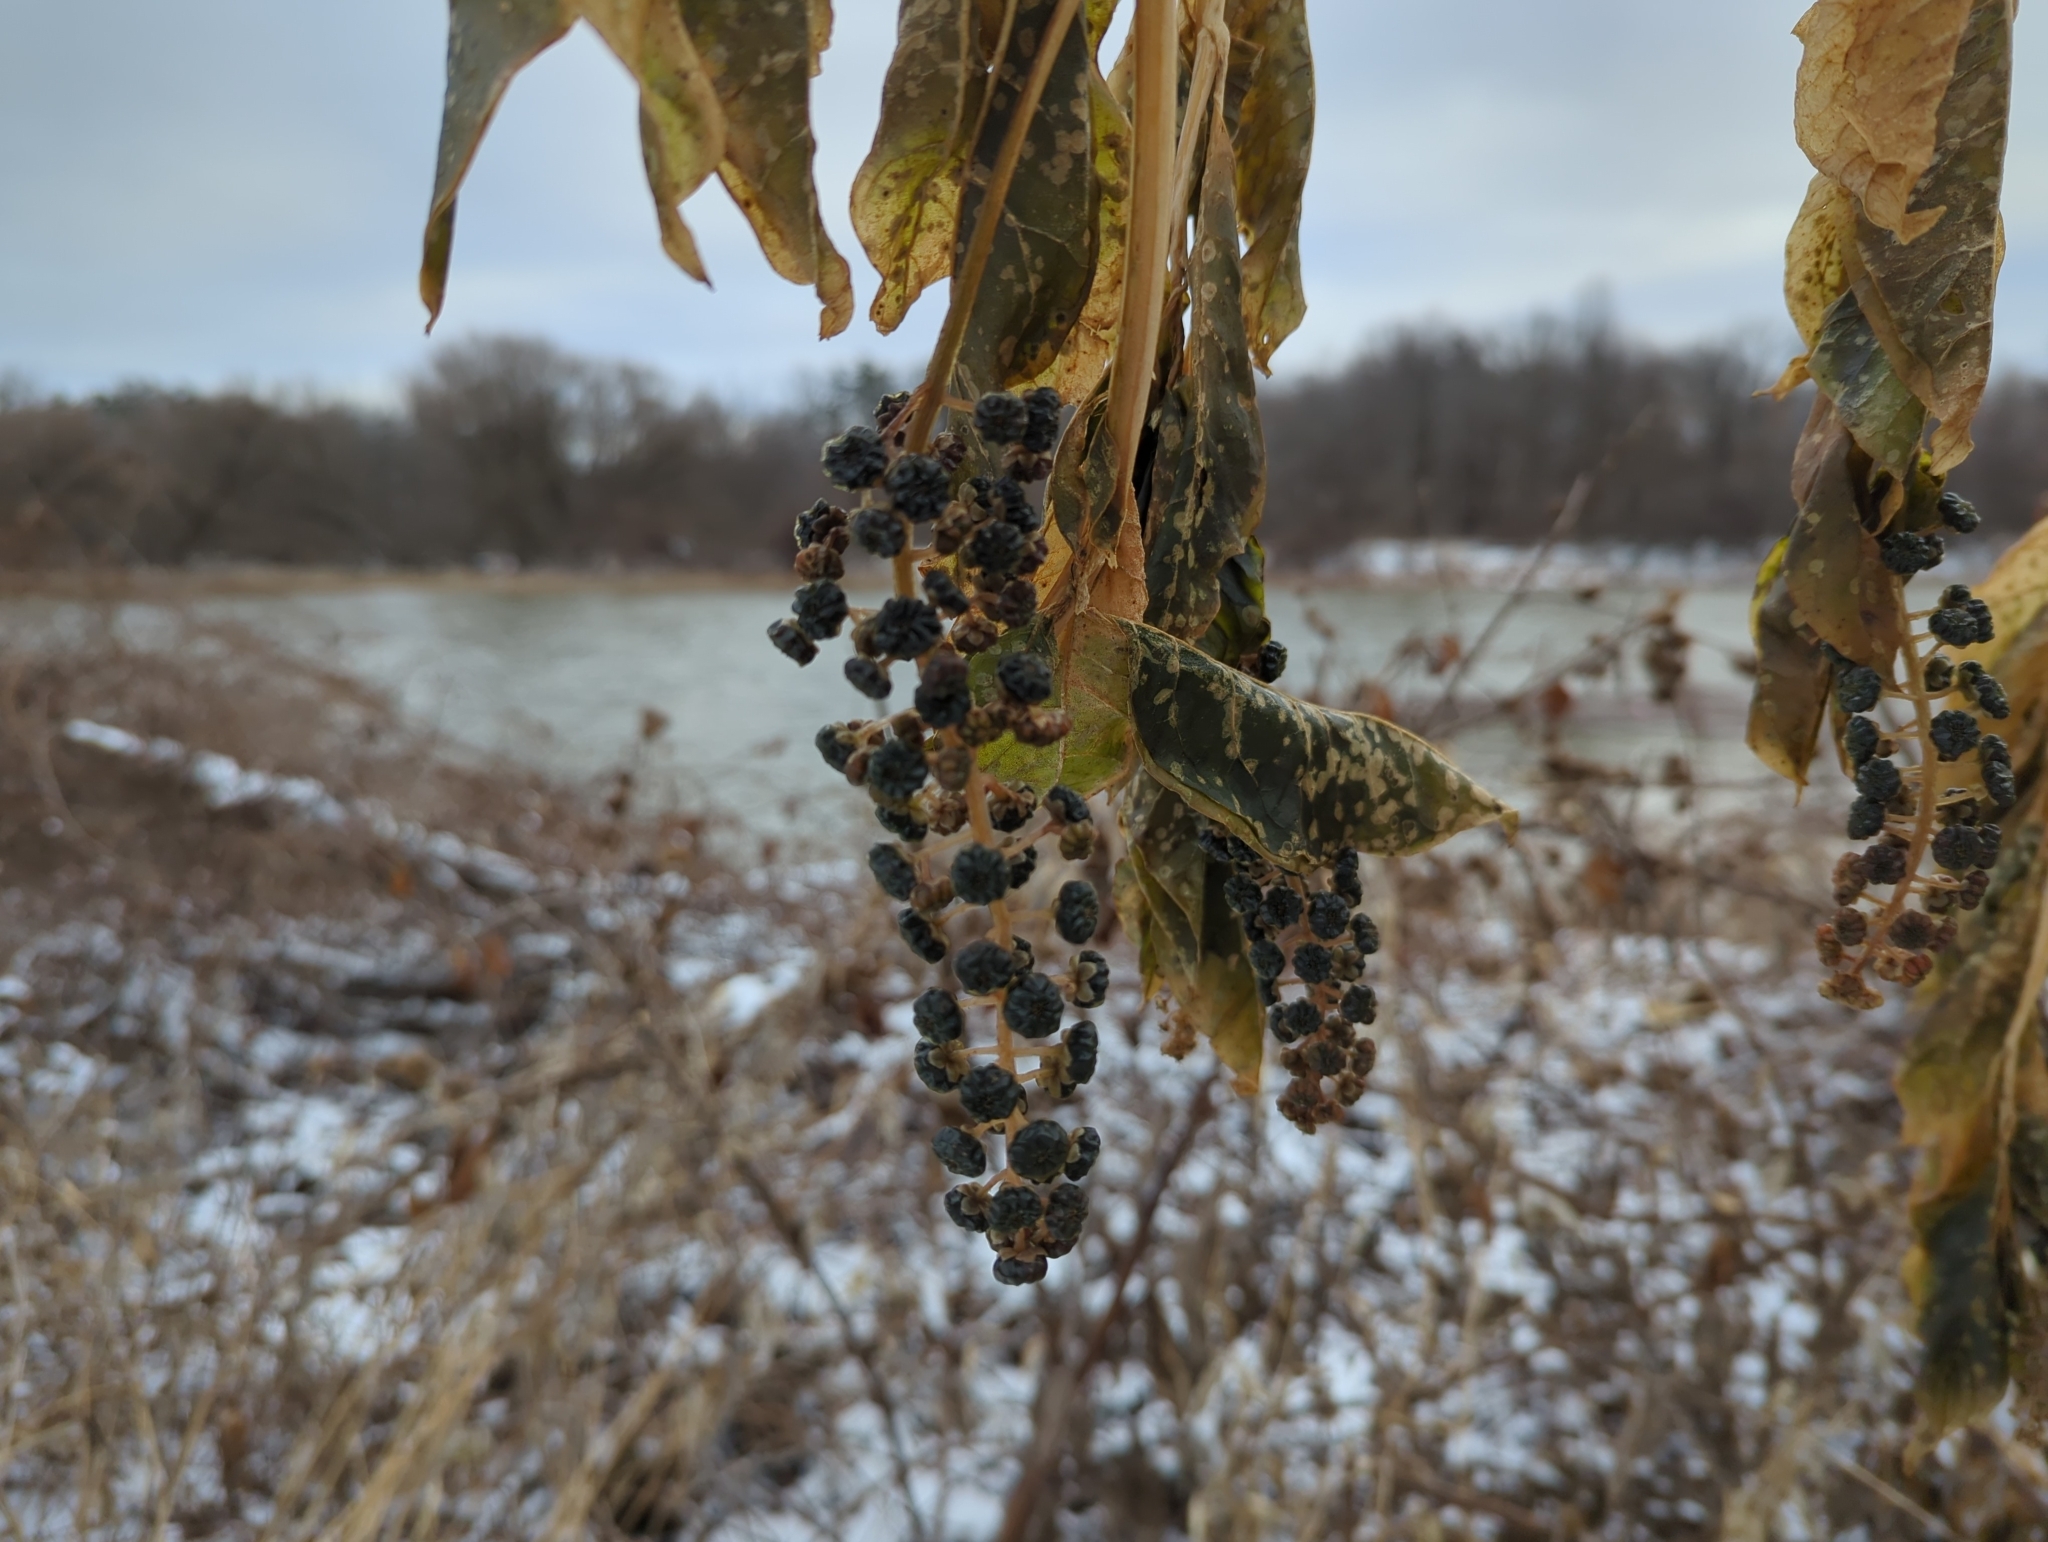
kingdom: Plantae
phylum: Tracheophyta
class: Magnoliopsida
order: Caryophyllales
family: Phytolaccaceae
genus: Phytolacca
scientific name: Phytolacca americana
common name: American pokeweed
